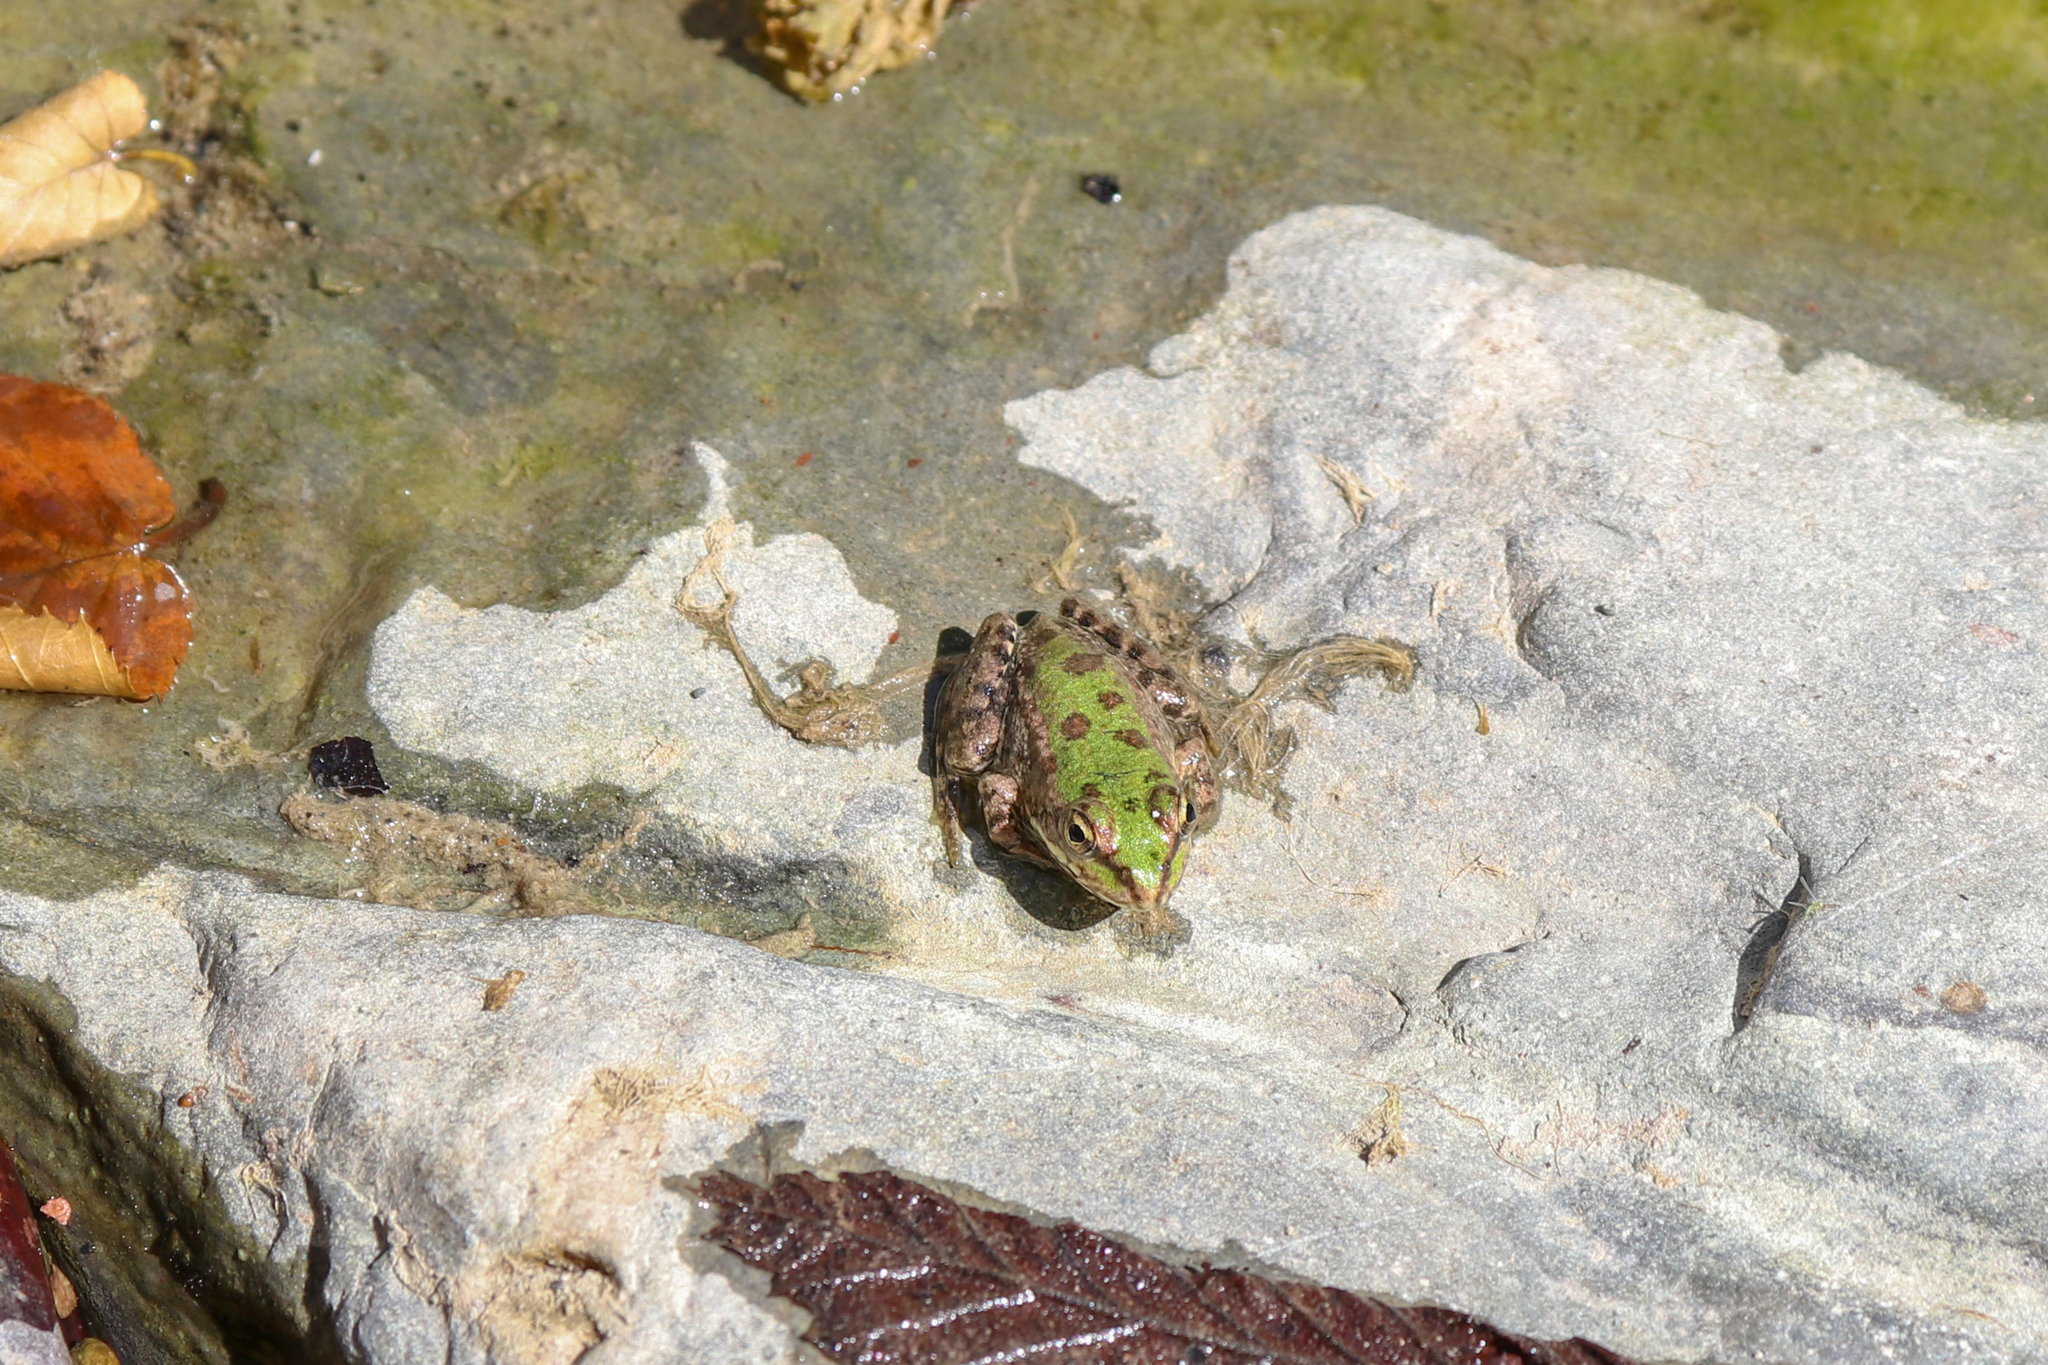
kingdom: Animalia
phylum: Chordata
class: Amphibia
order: Anura
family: Ranidae
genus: Pelophylax
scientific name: Pelophylax ridibundus
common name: Marsh frog
